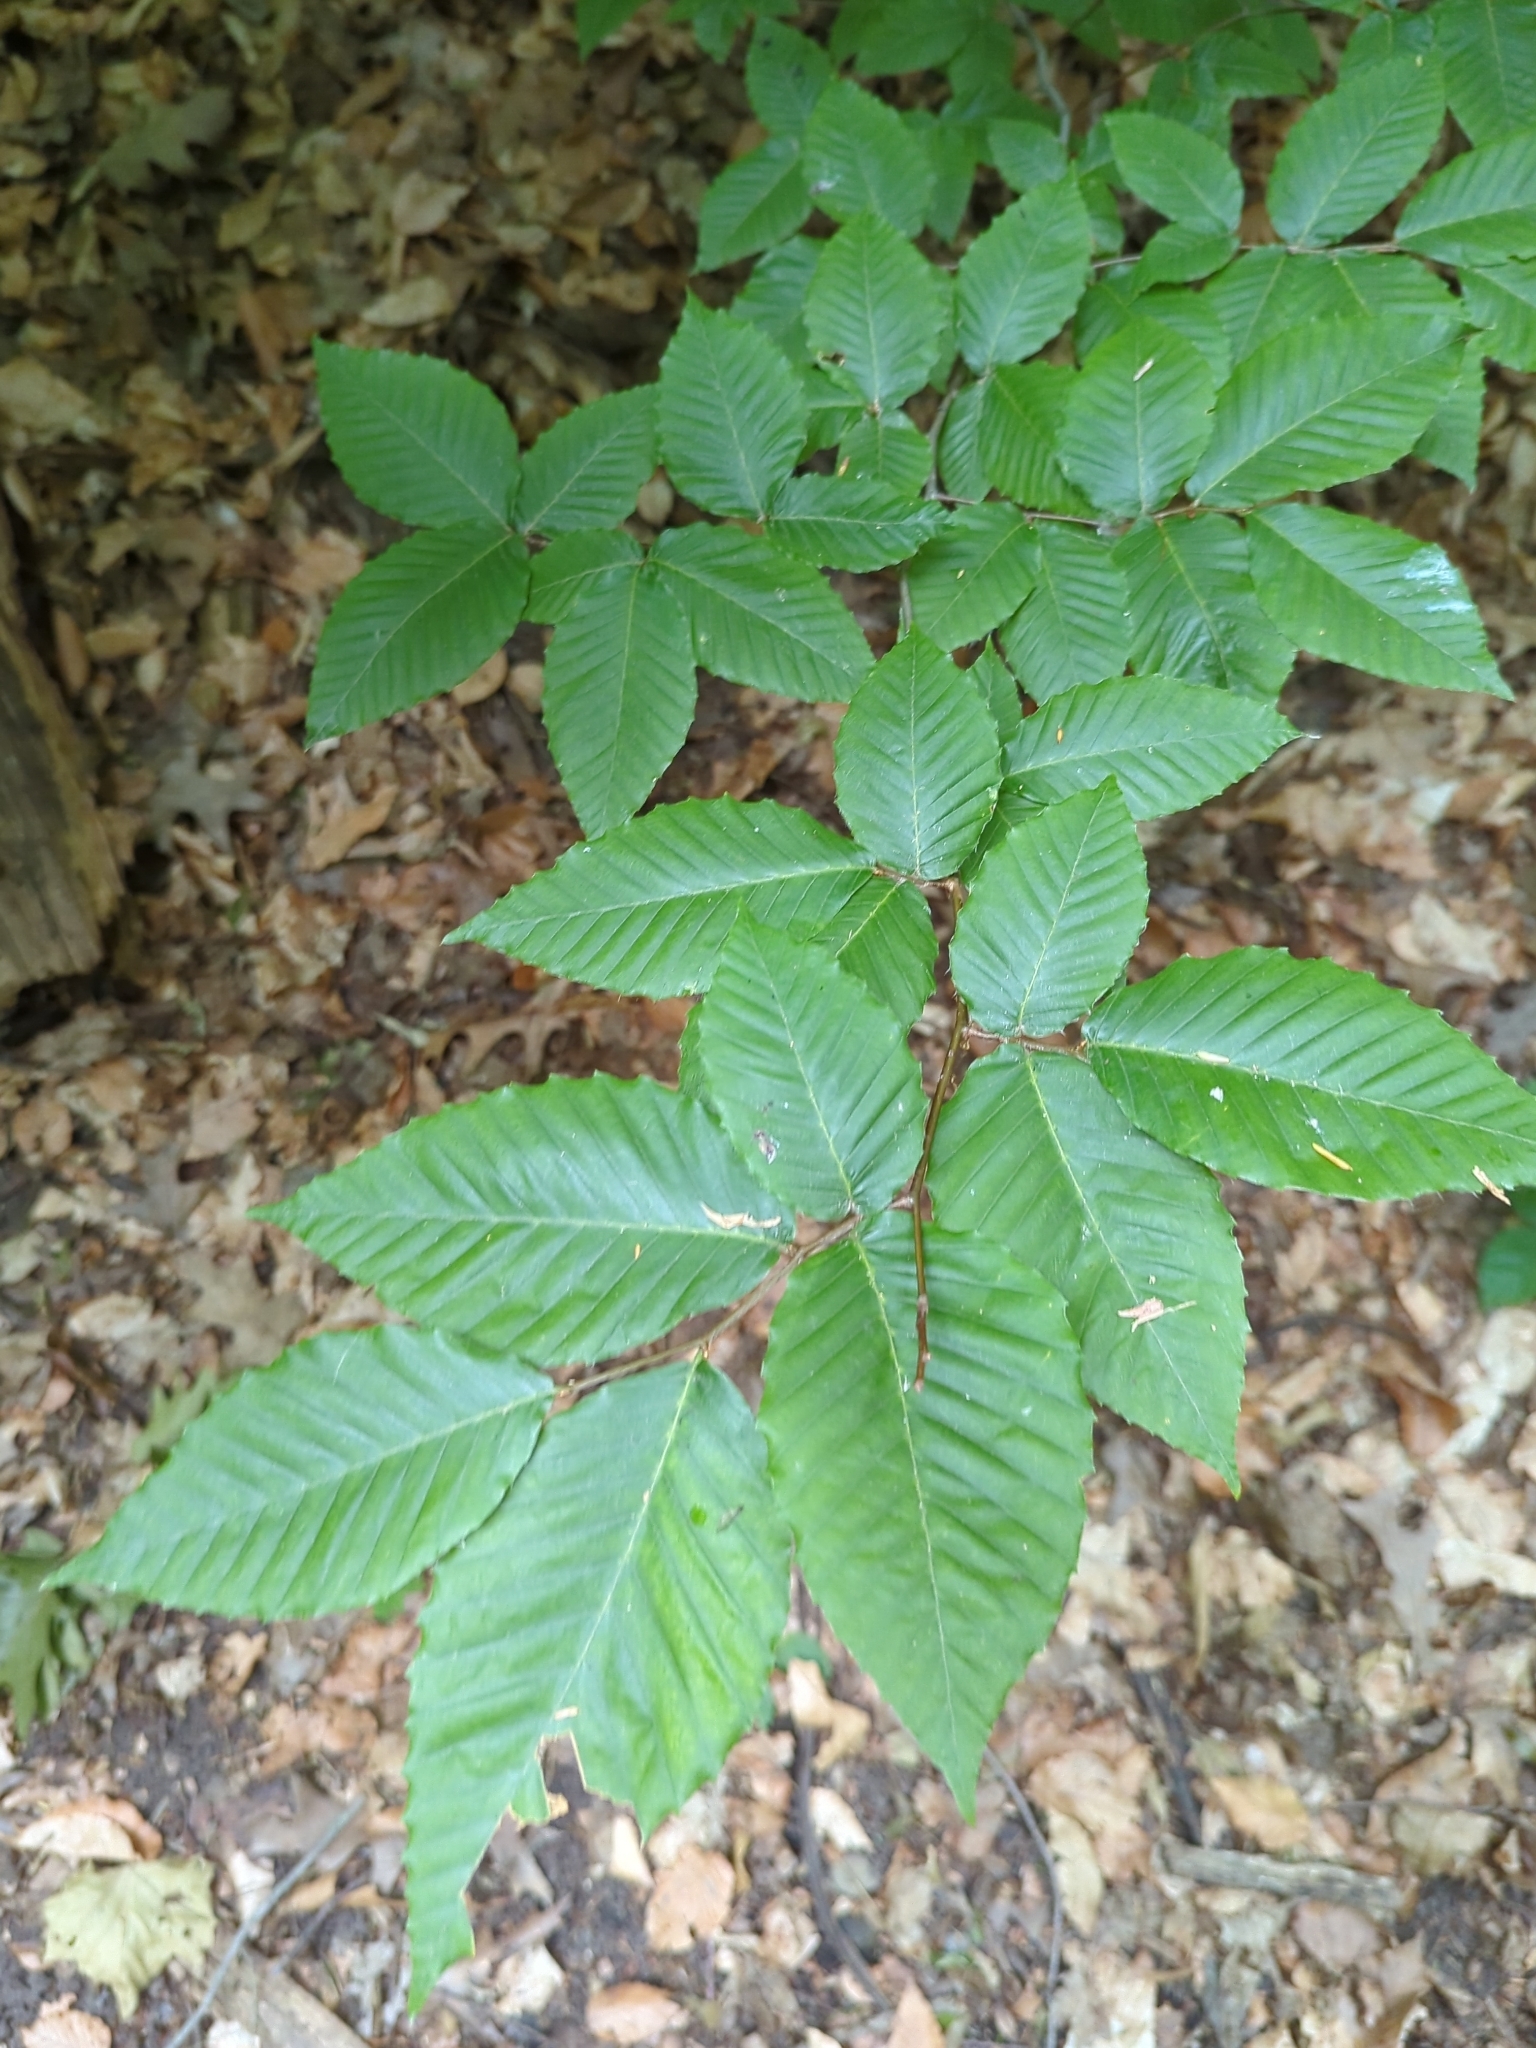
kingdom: Plantae
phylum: Tracheophyta
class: Magnoliopsida
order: Fagales
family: Fagaceae
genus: Fagus
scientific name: Fagus grandifolia
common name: American beech
